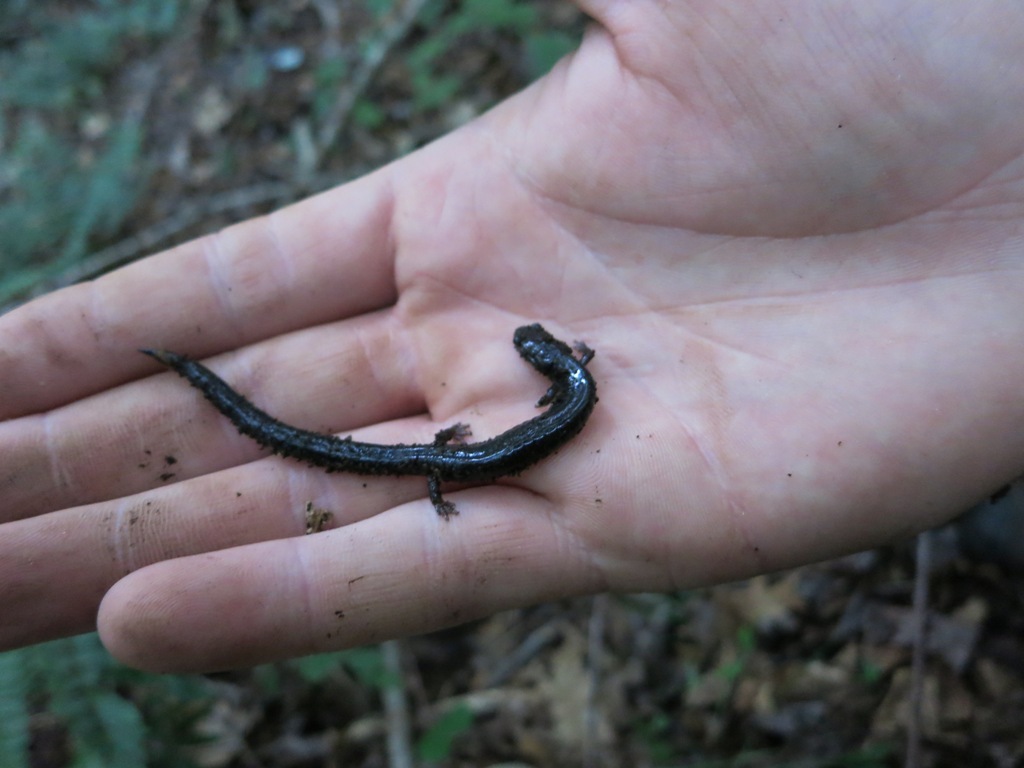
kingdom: Animalia
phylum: Chordata
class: Amphibia
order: Caudata
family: Plethodontidae
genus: Plethodon
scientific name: Plethodon richmondi
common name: Ravine salamander
